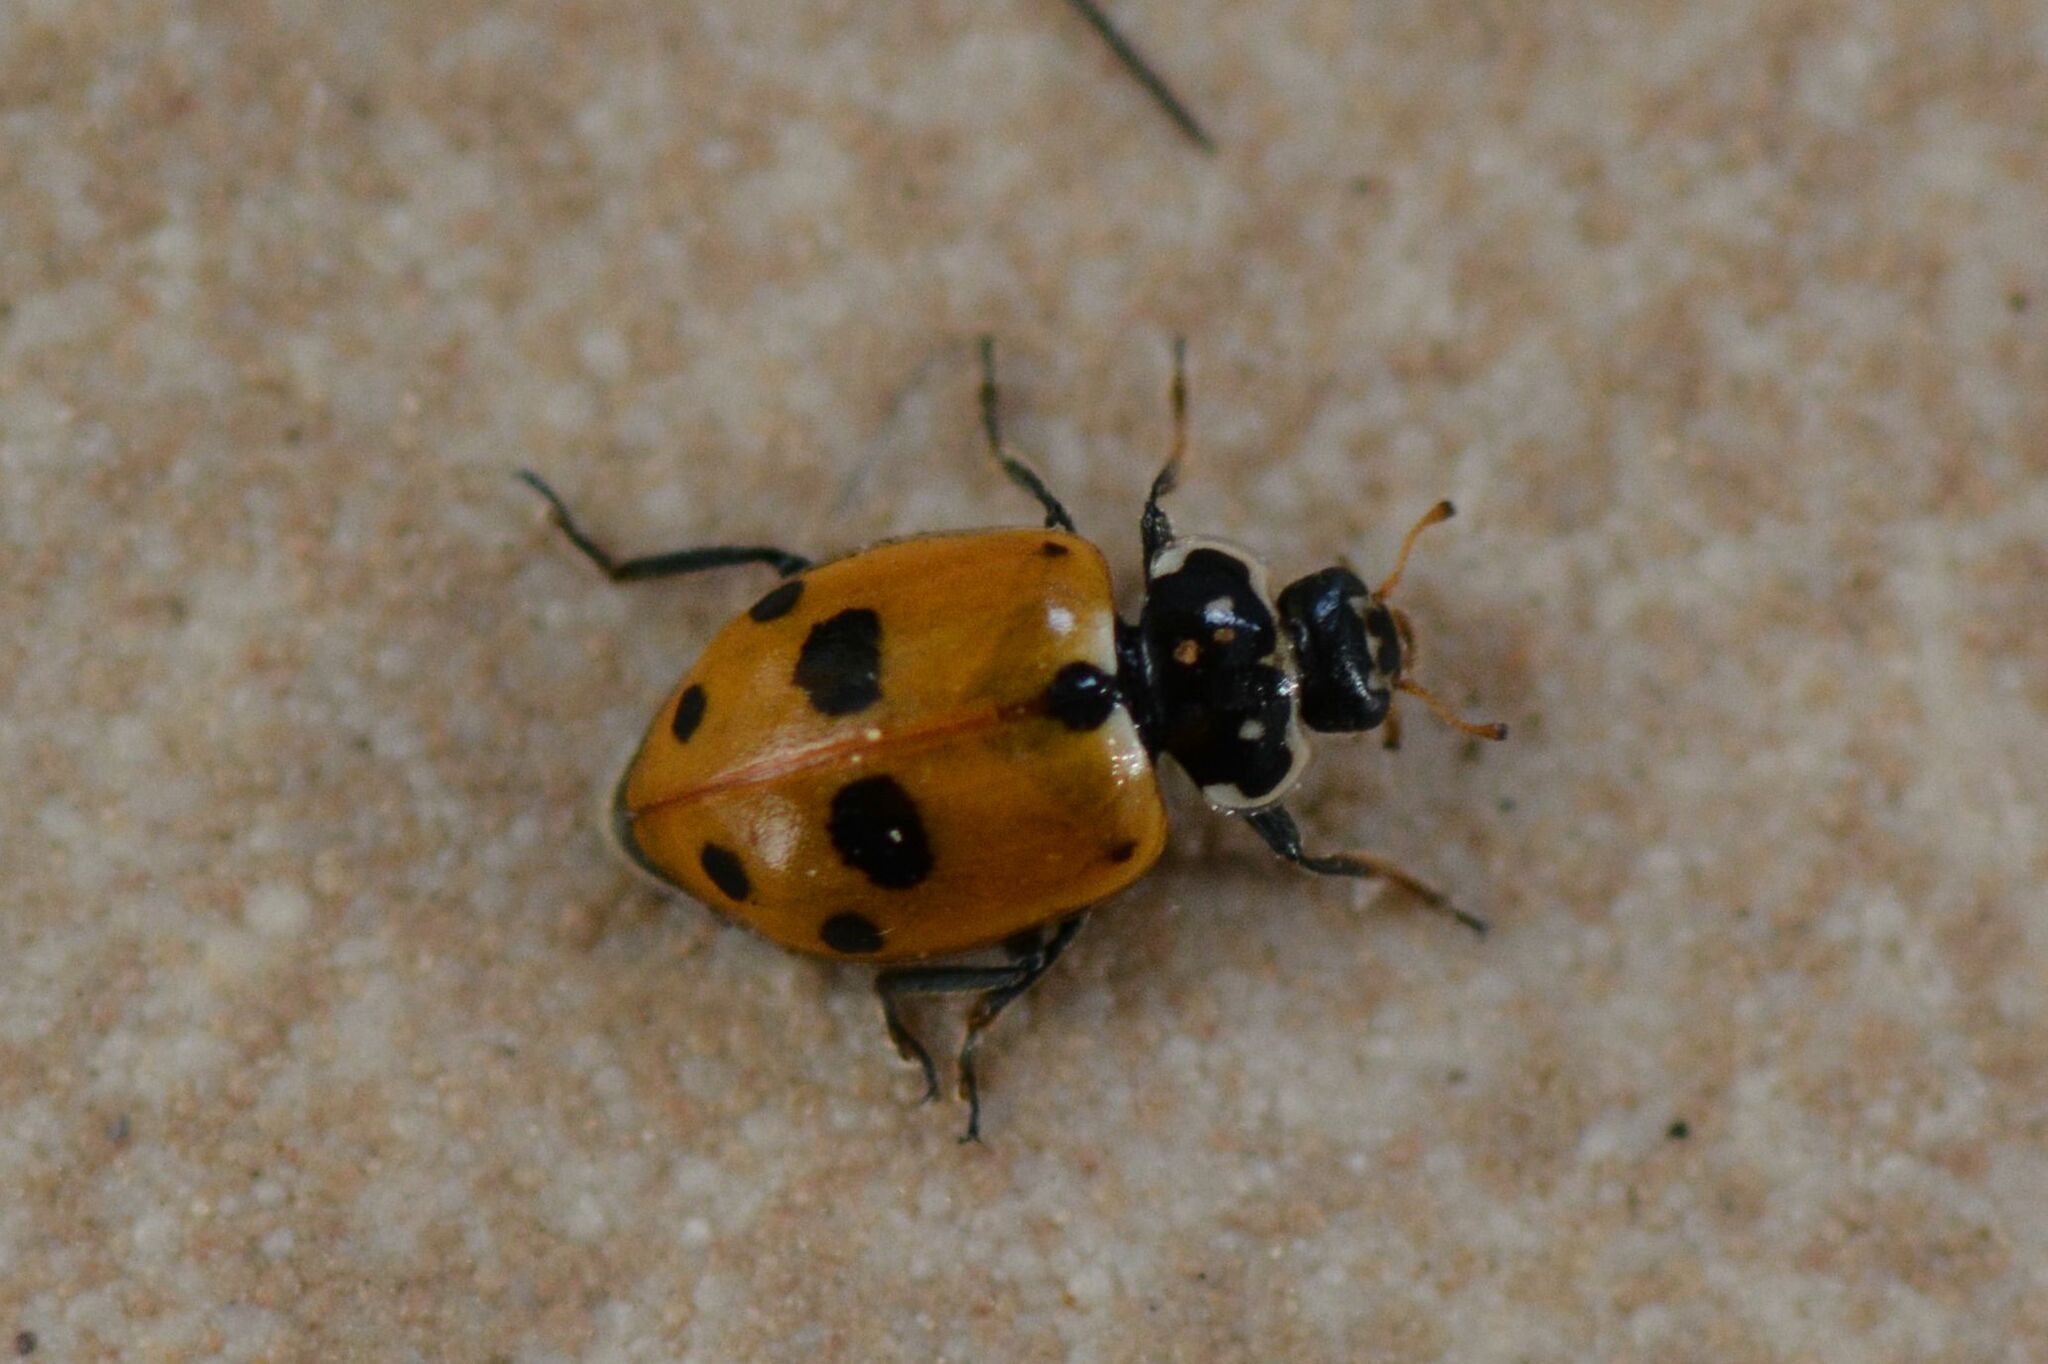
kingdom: Animalia
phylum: Arthropoda
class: Insecta
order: Coleoptera
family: Coccinellidae
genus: Hippodamia
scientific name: Hippodamia variegata
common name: Ladybird beetle
